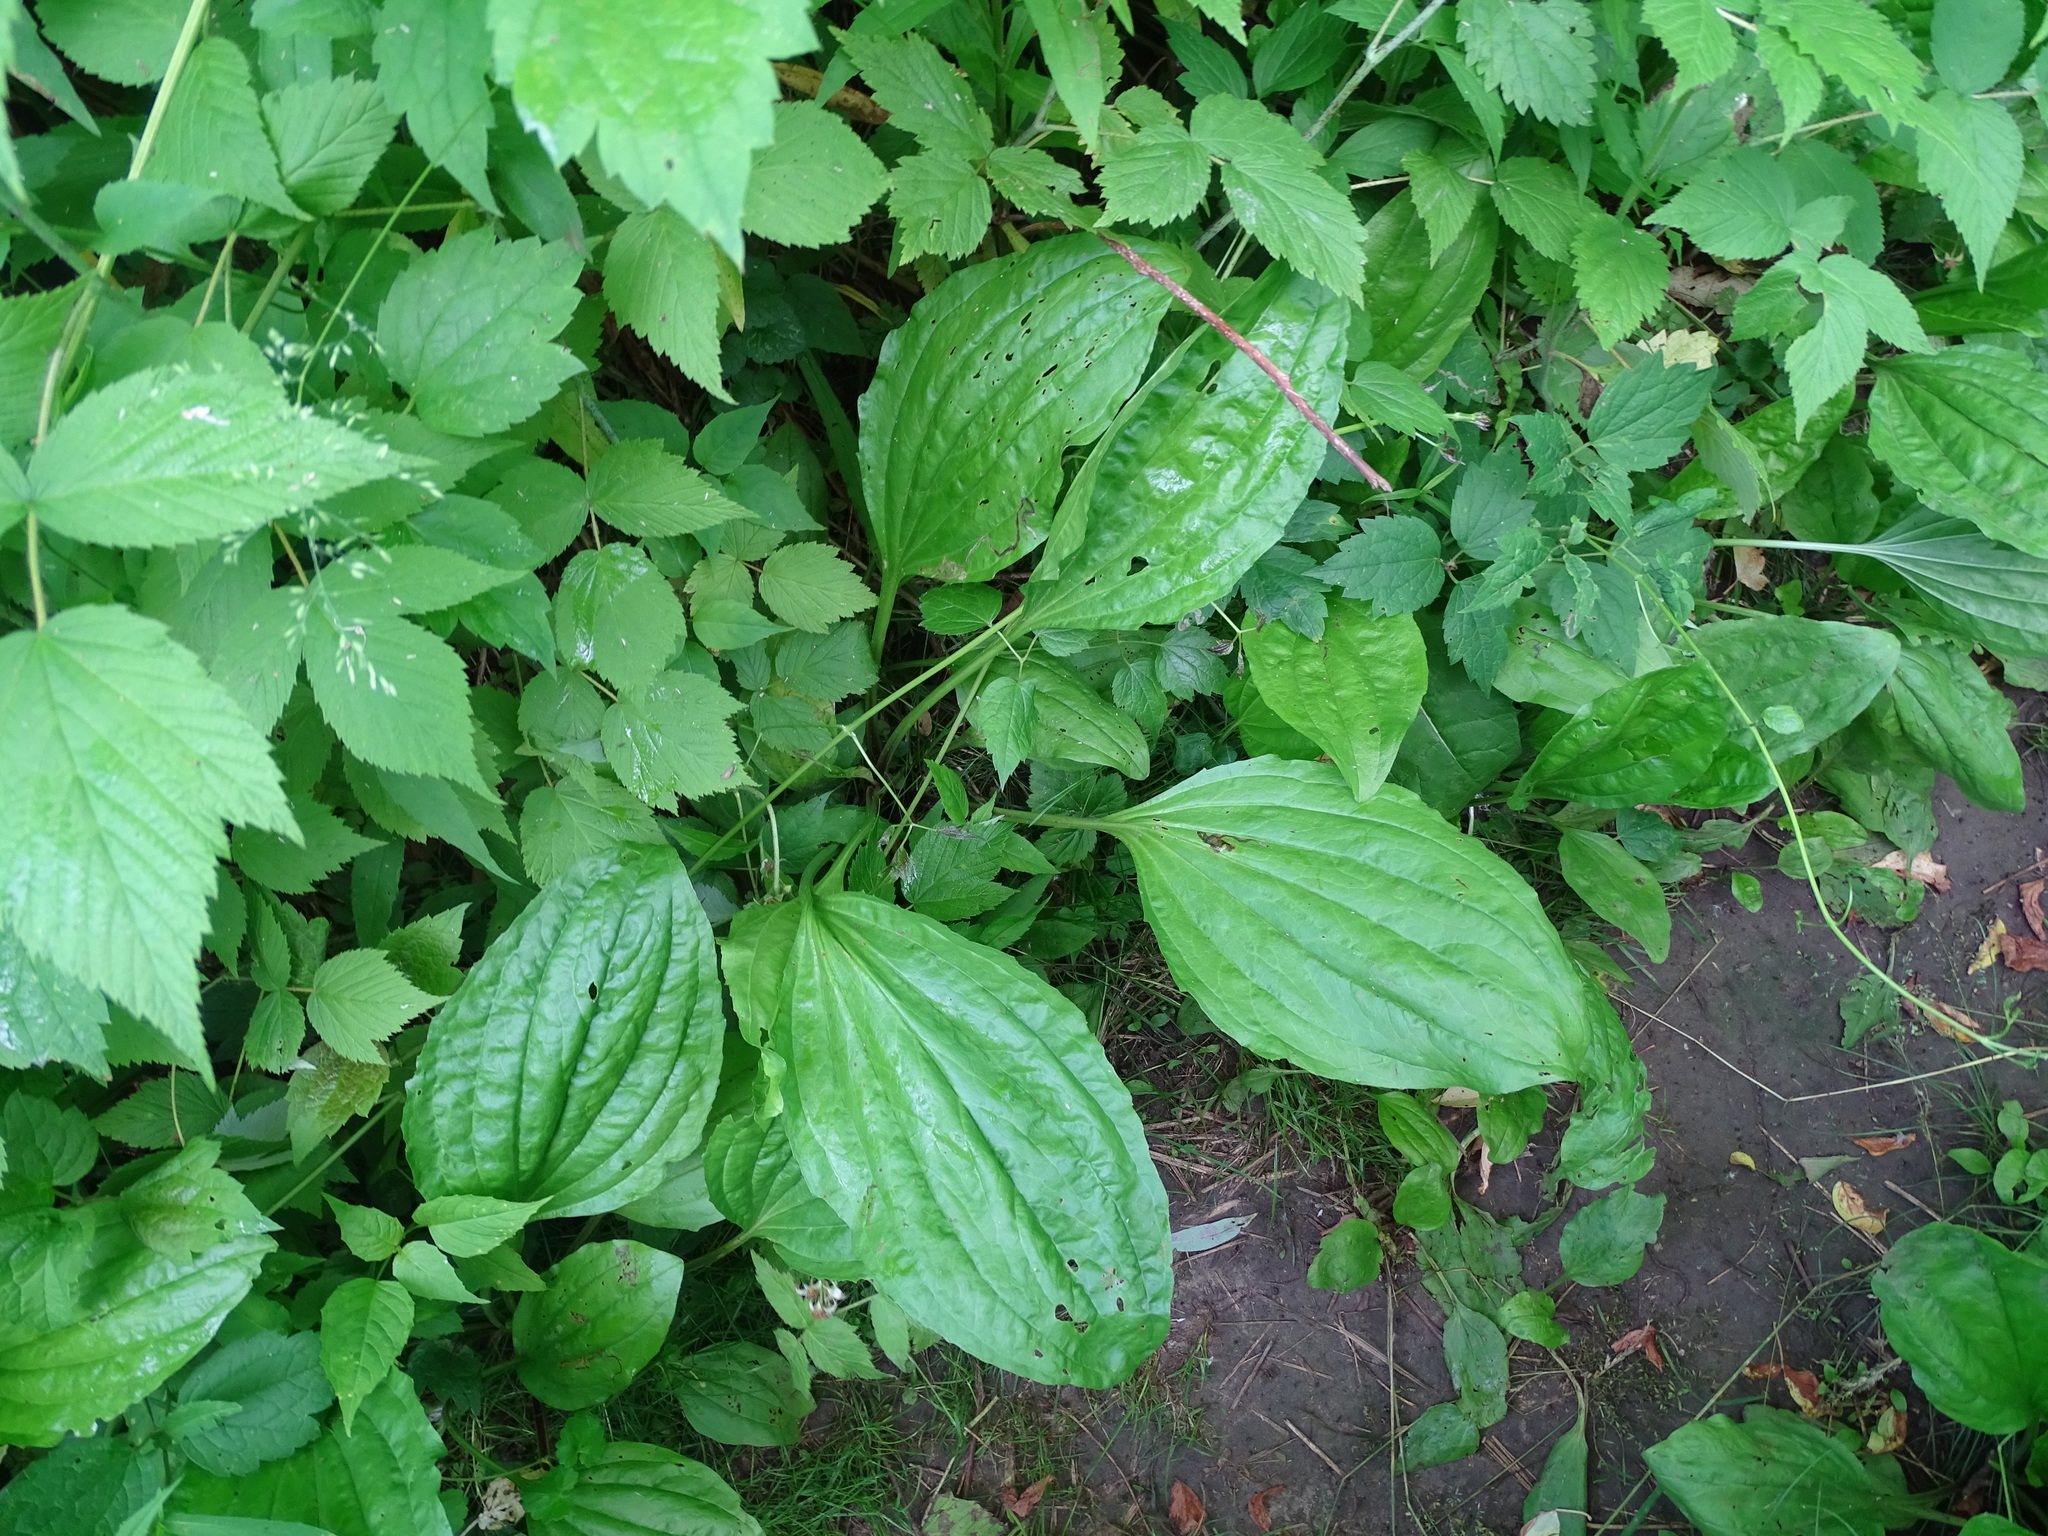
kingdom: Plantae
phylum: Tracheophyta
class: Magnoliopsida
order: Lamiales
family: Plantaginaceae
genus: Plantago
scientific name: Plantago rugelii
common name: American plantain
